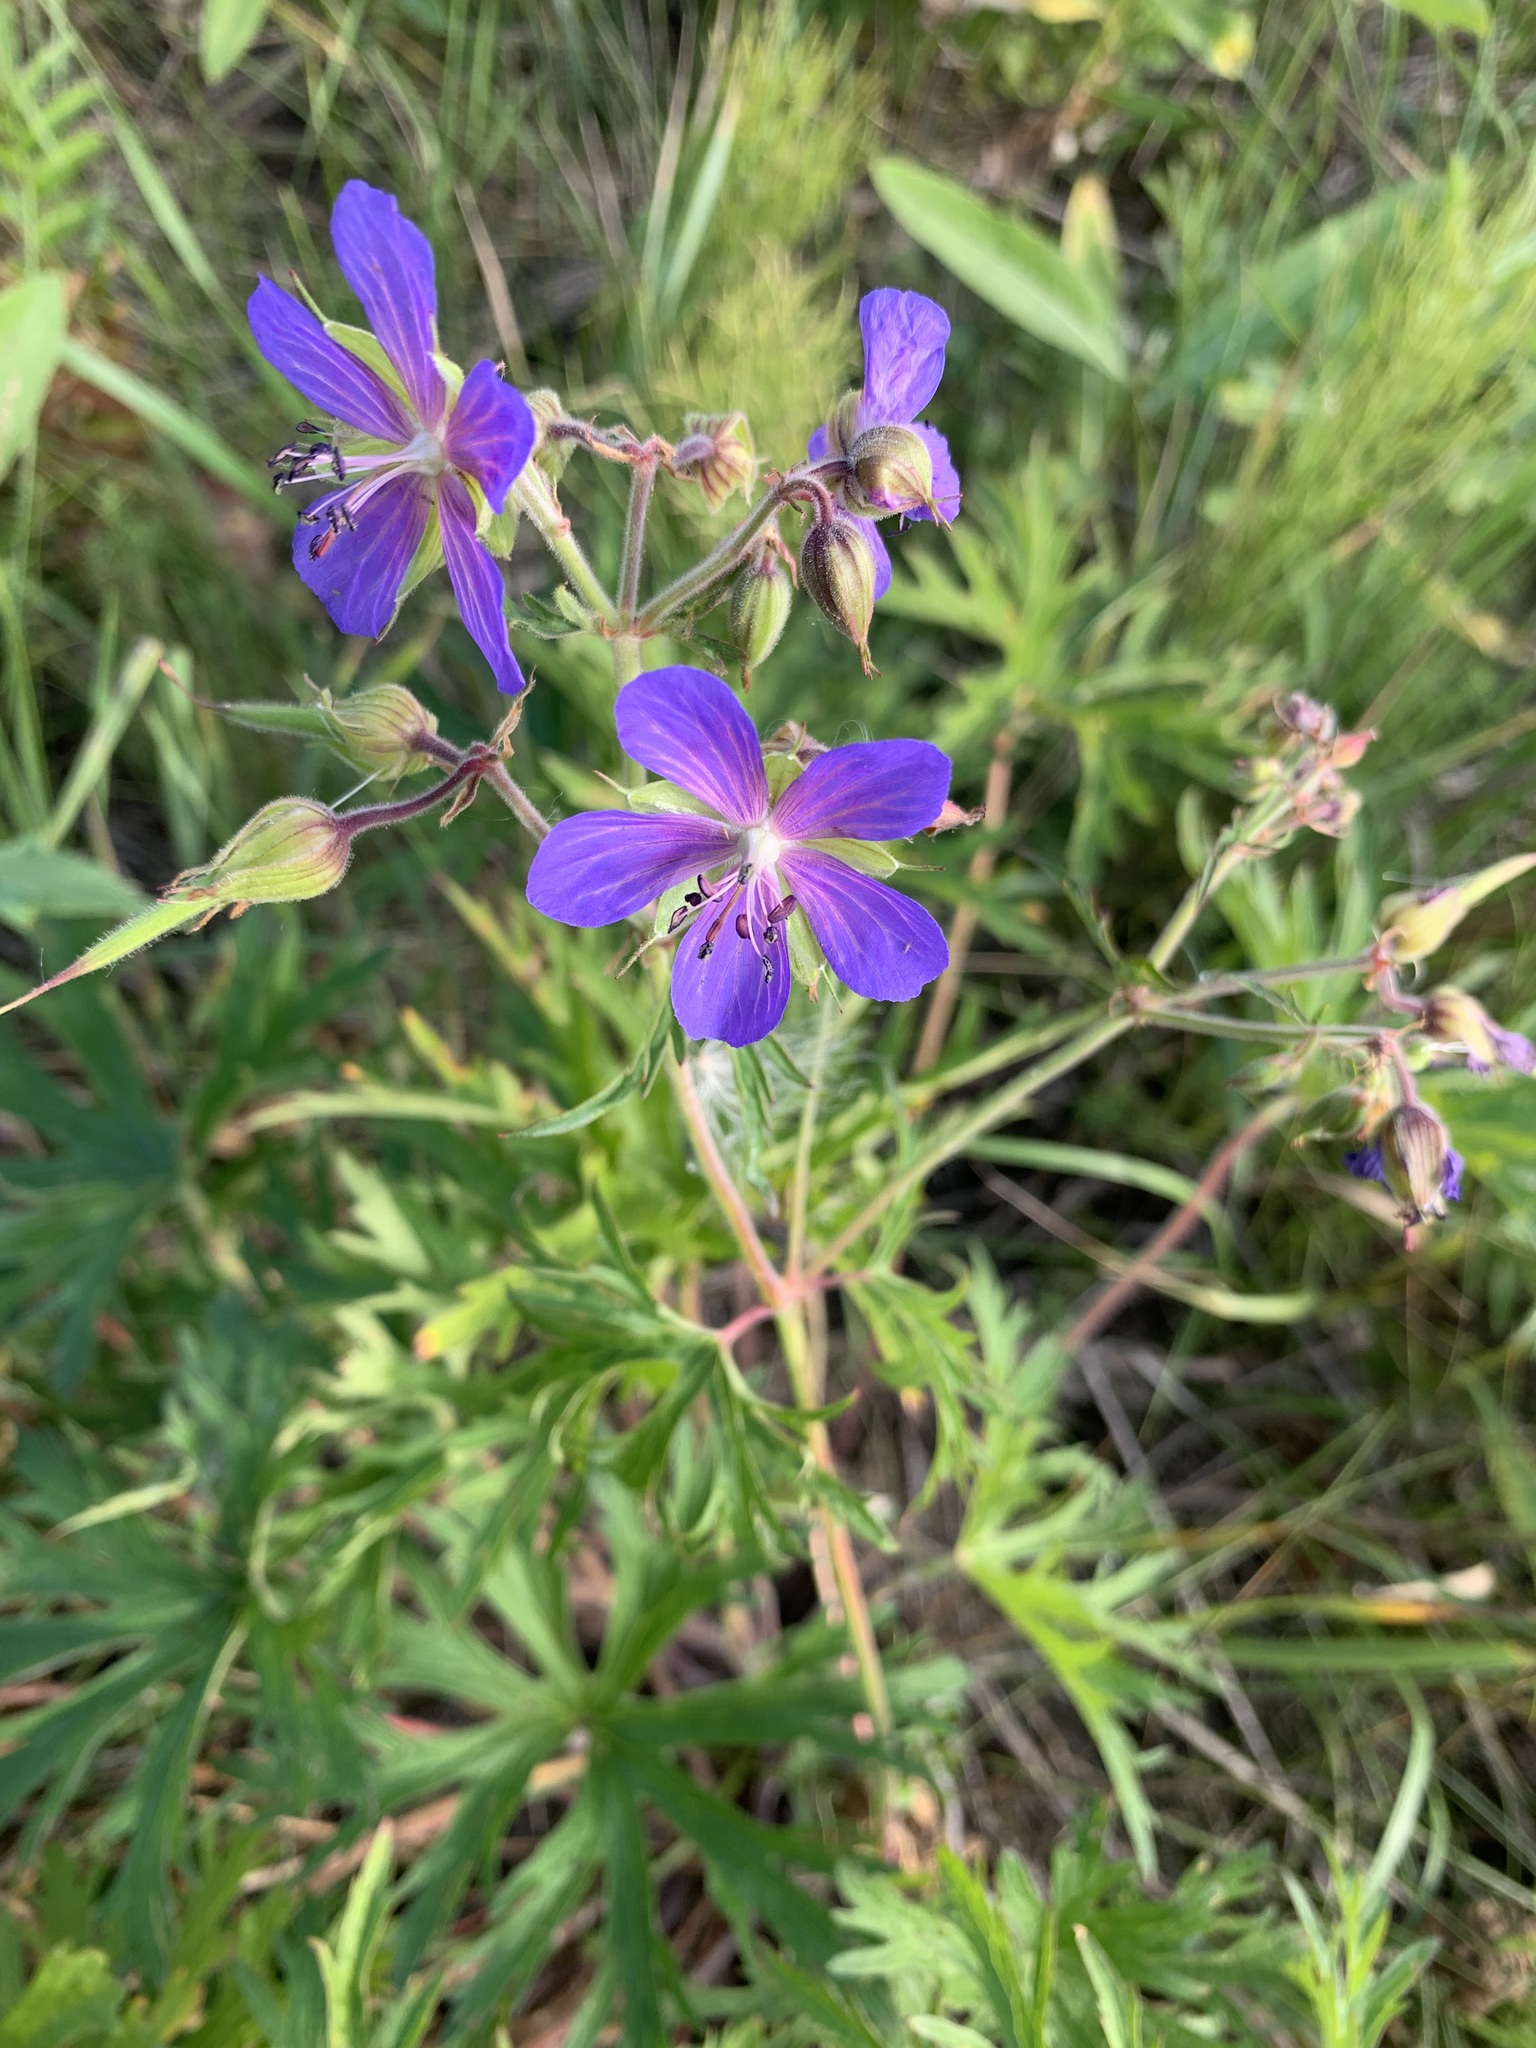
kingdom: Plantae
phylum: Tracheophyta
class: Magnoliopsida
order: Geraniales
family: Geraniaceae
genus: Geranium
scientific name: Geranium pratense
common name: Meadow crane's-bill
